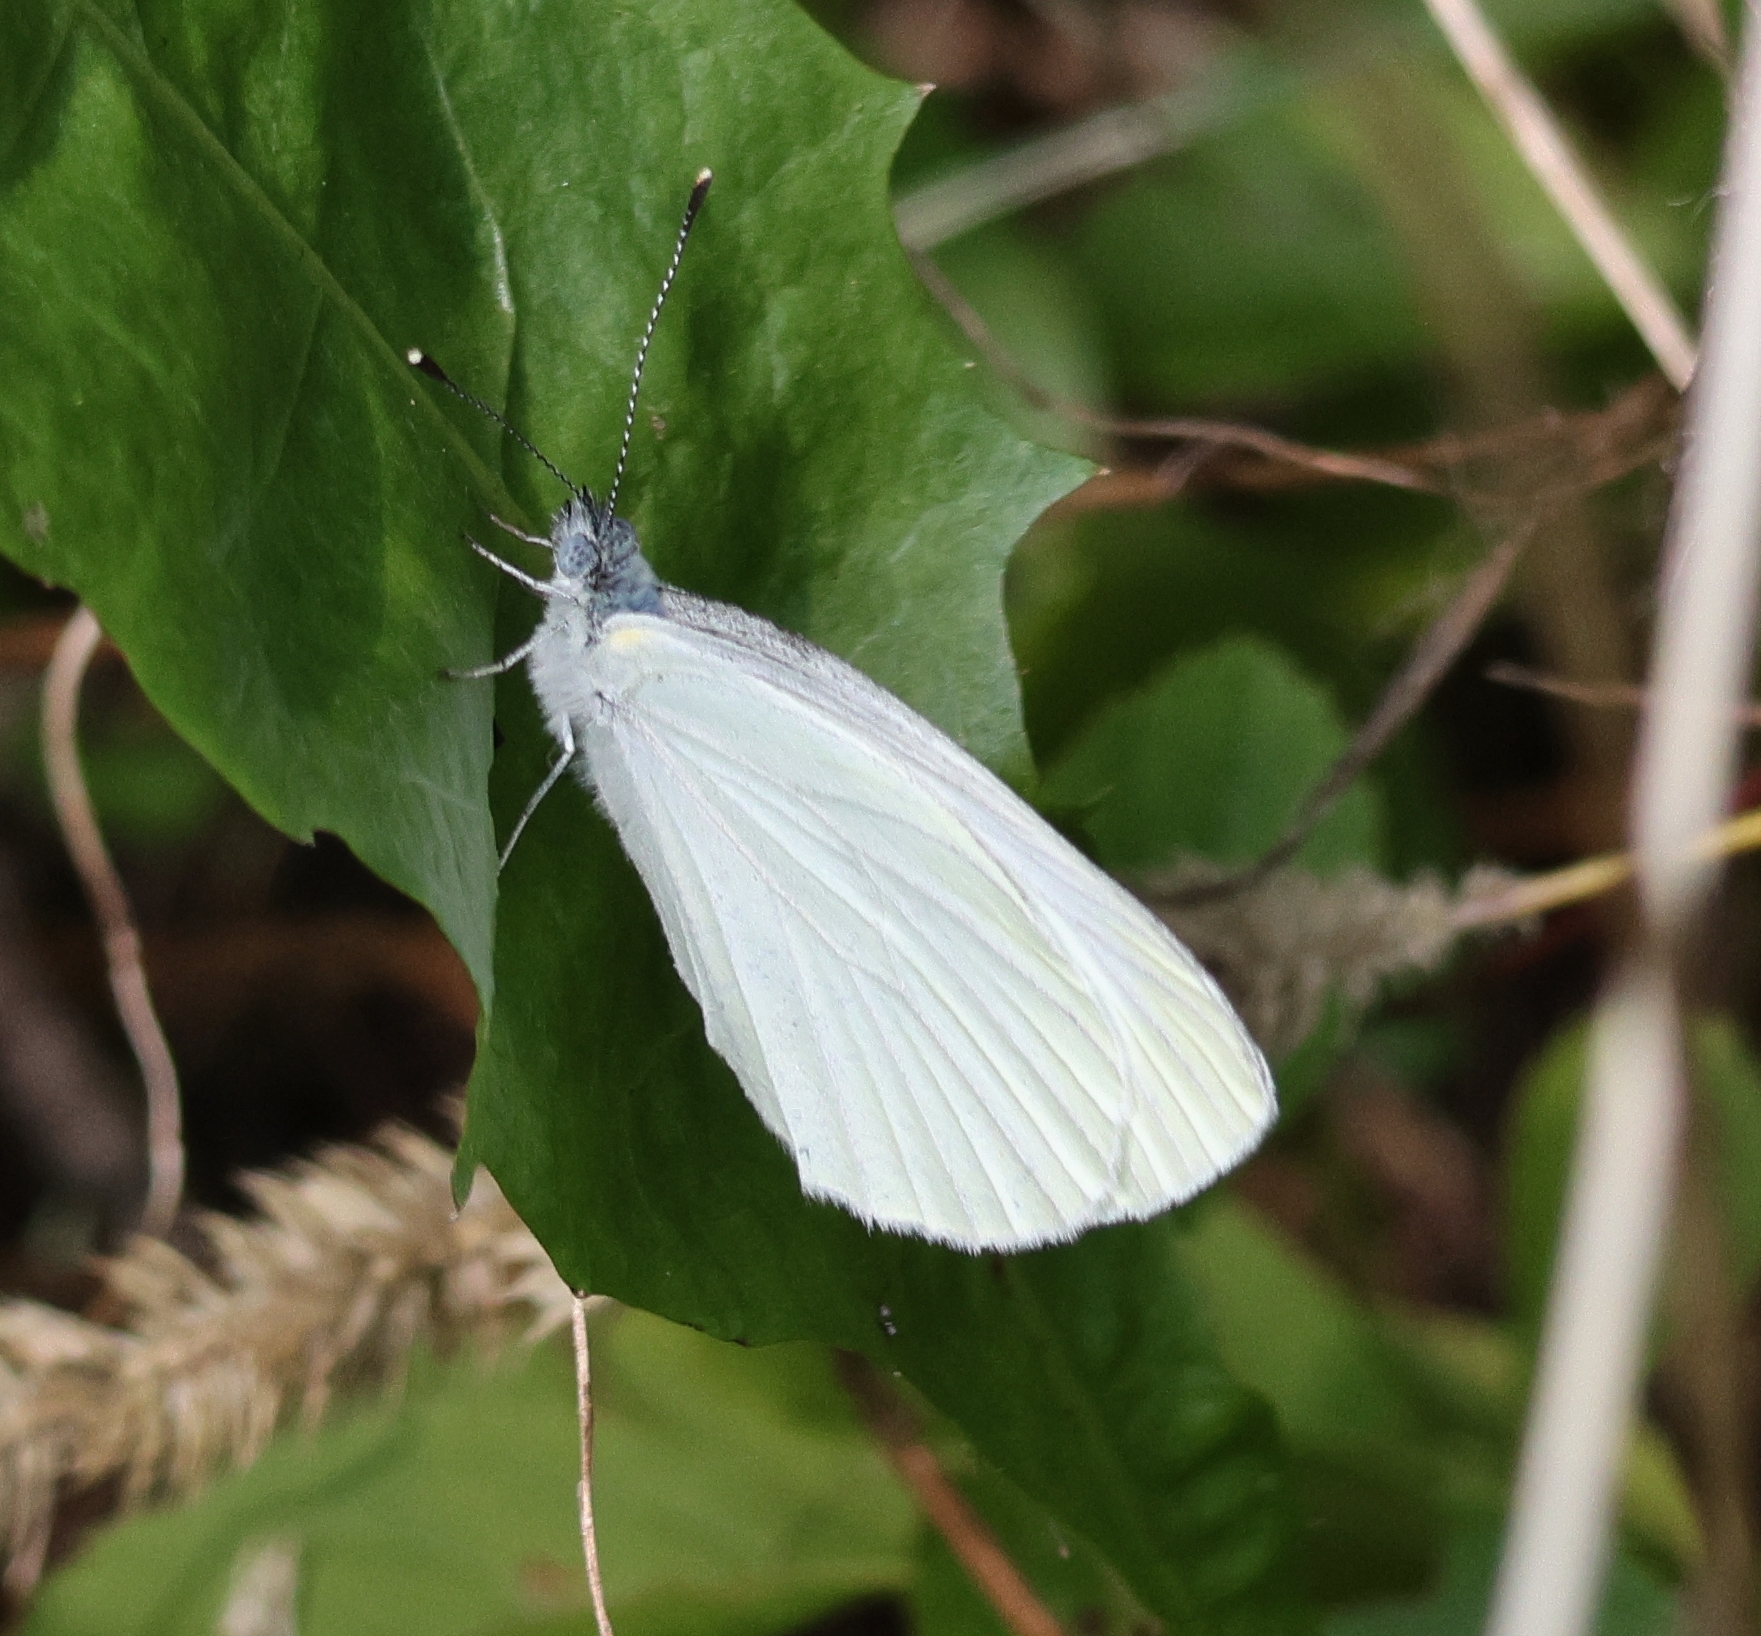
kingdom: Animalia
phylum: Arthropoda
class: Insecta
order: Lepidoptera
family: Pieridae
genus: Pieris
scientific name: Pieris oleracea
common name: Mustard white
